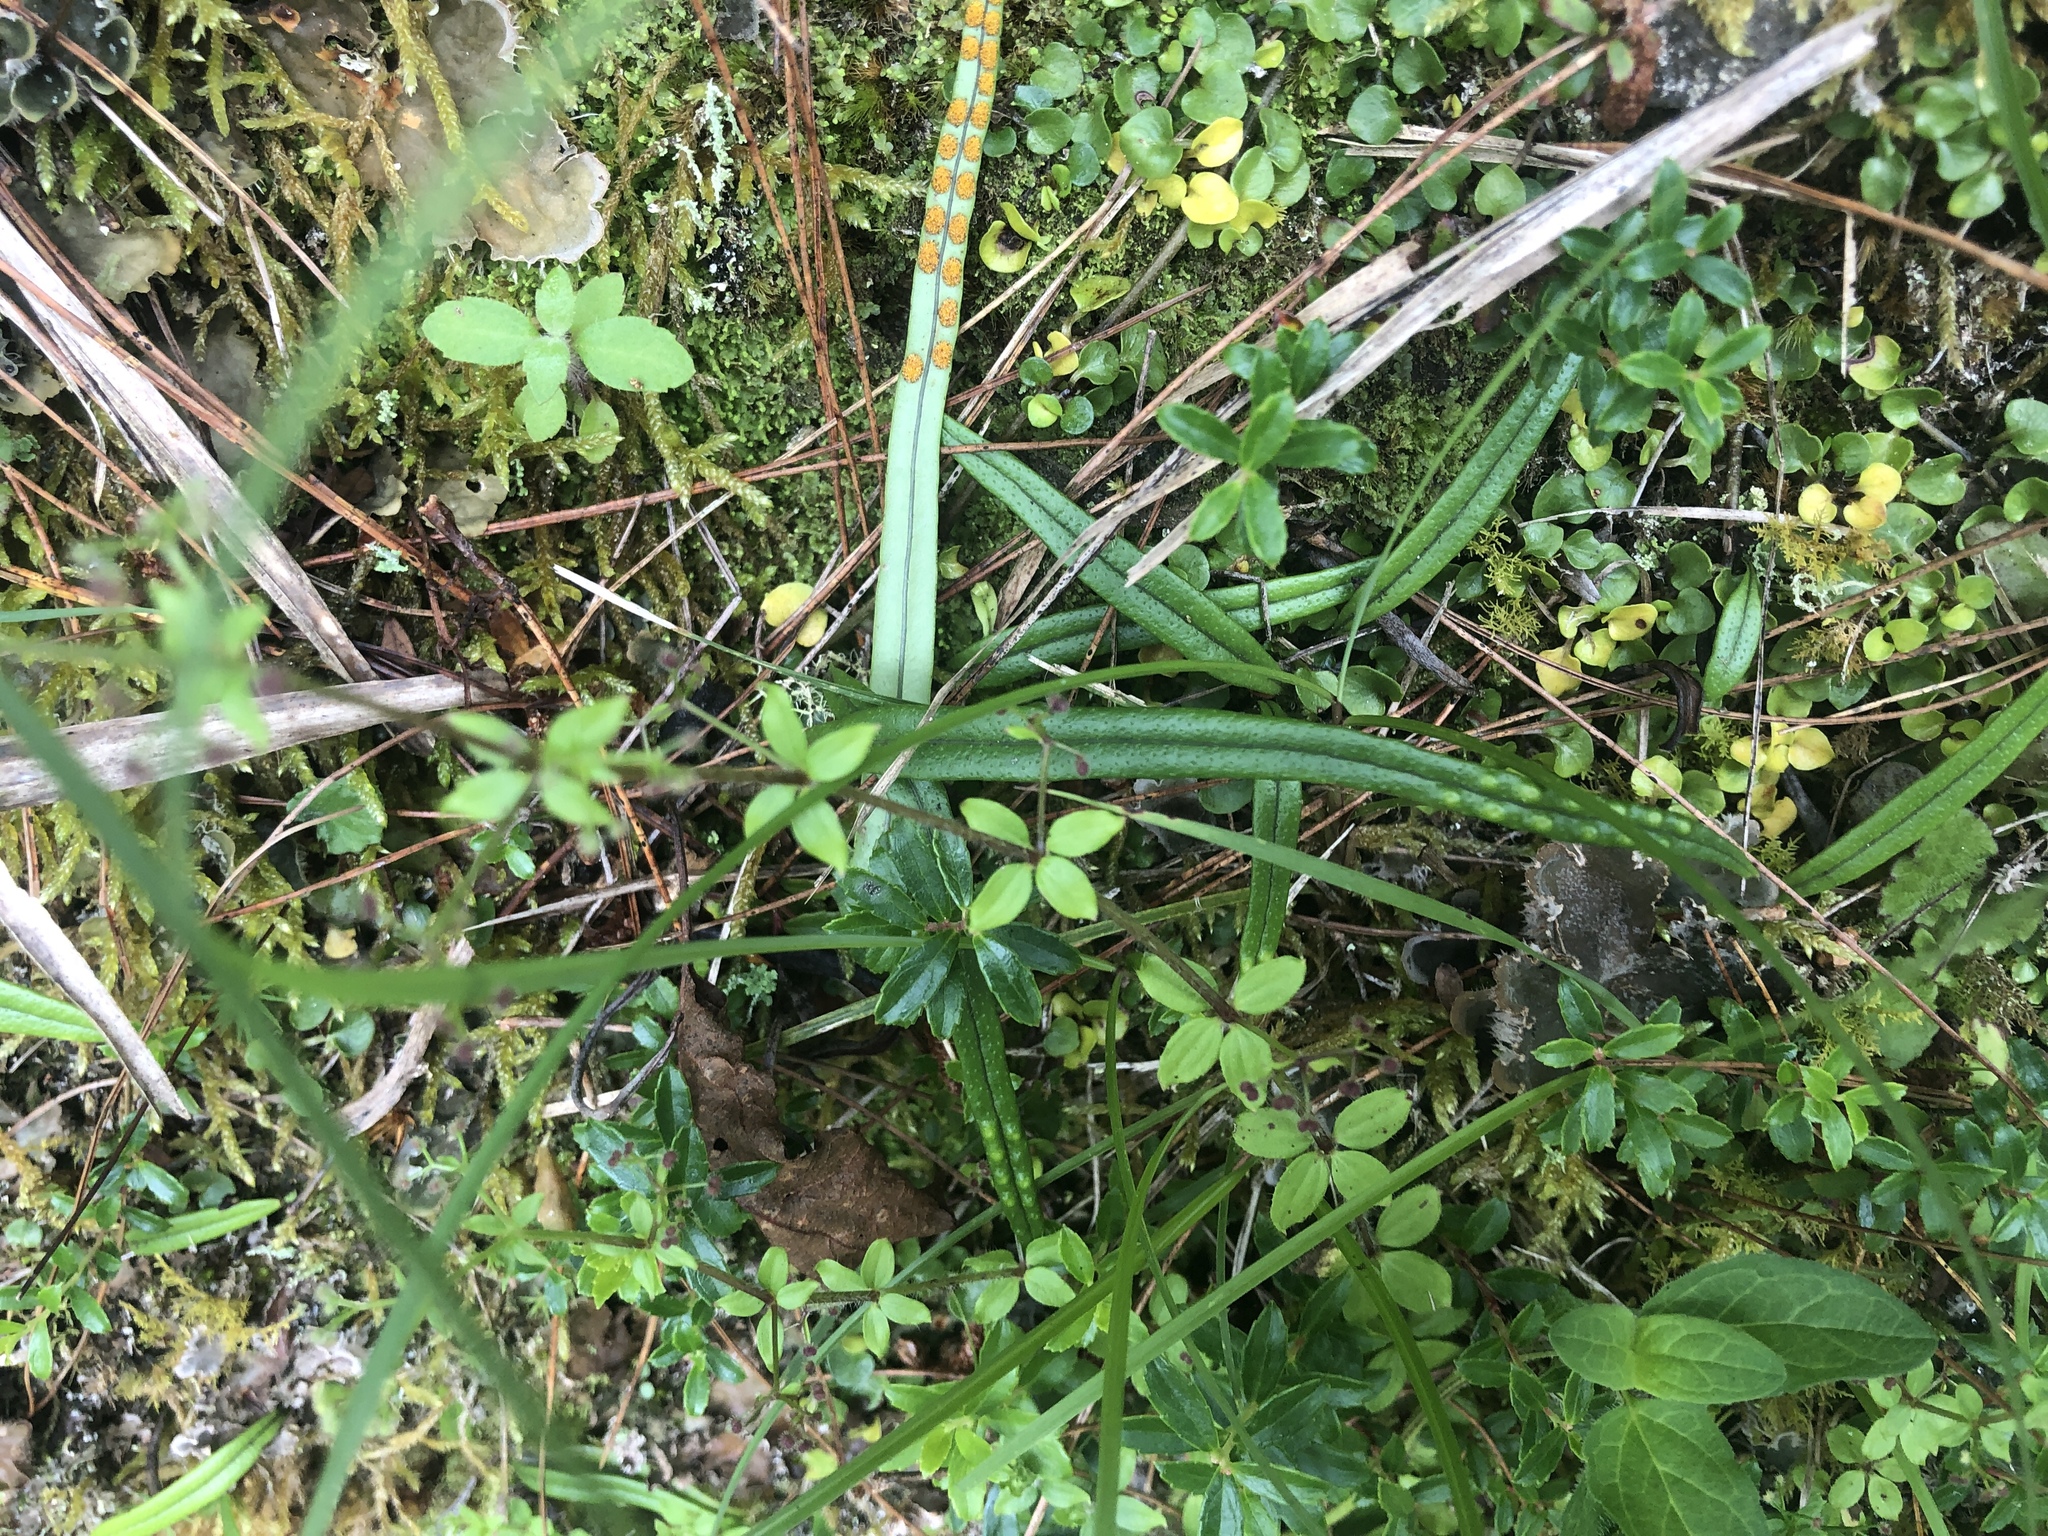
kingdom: Plantae
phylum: Tracheophyta
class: Polypodiopsida
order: Polypodiales
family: Polypodiaceae
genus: Lepisorus
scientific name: Lepisorus pseudoussuriensis
